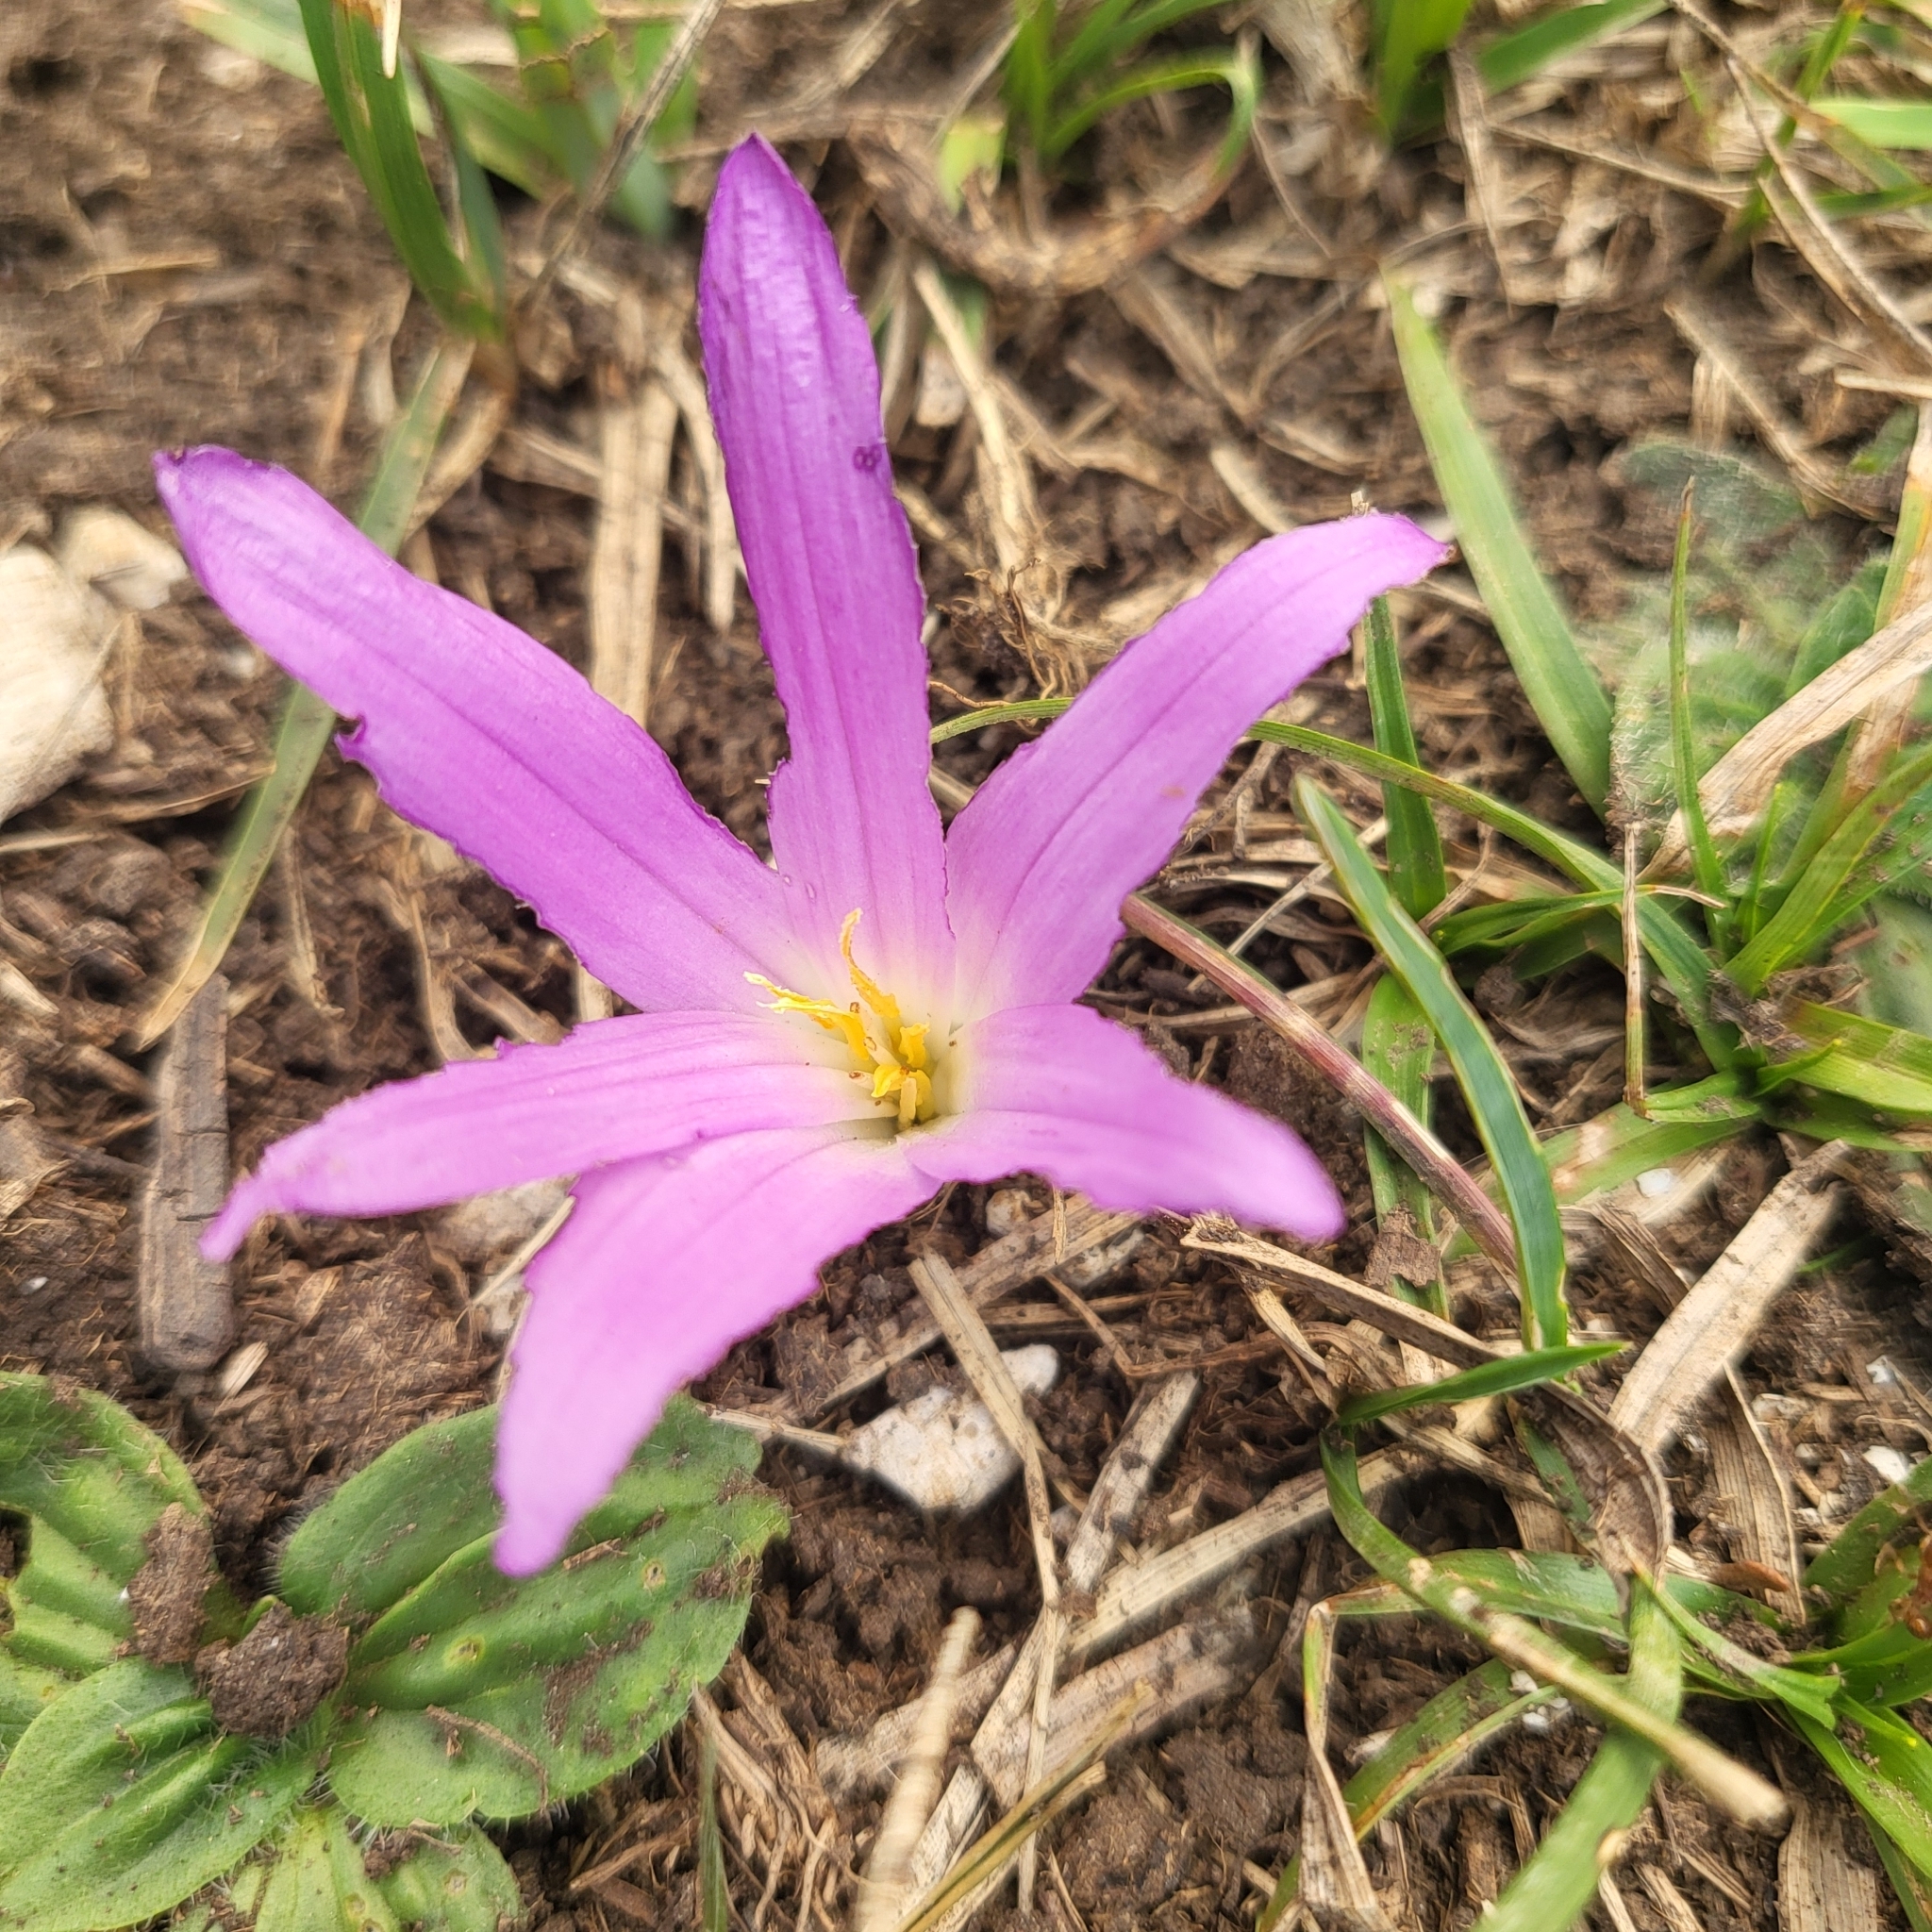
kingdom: Plantae
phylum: Tracheophyta
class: Liliopsida
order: Liliales
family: Colchicaceae
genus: Colchicum
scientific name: Colchicum montanum
